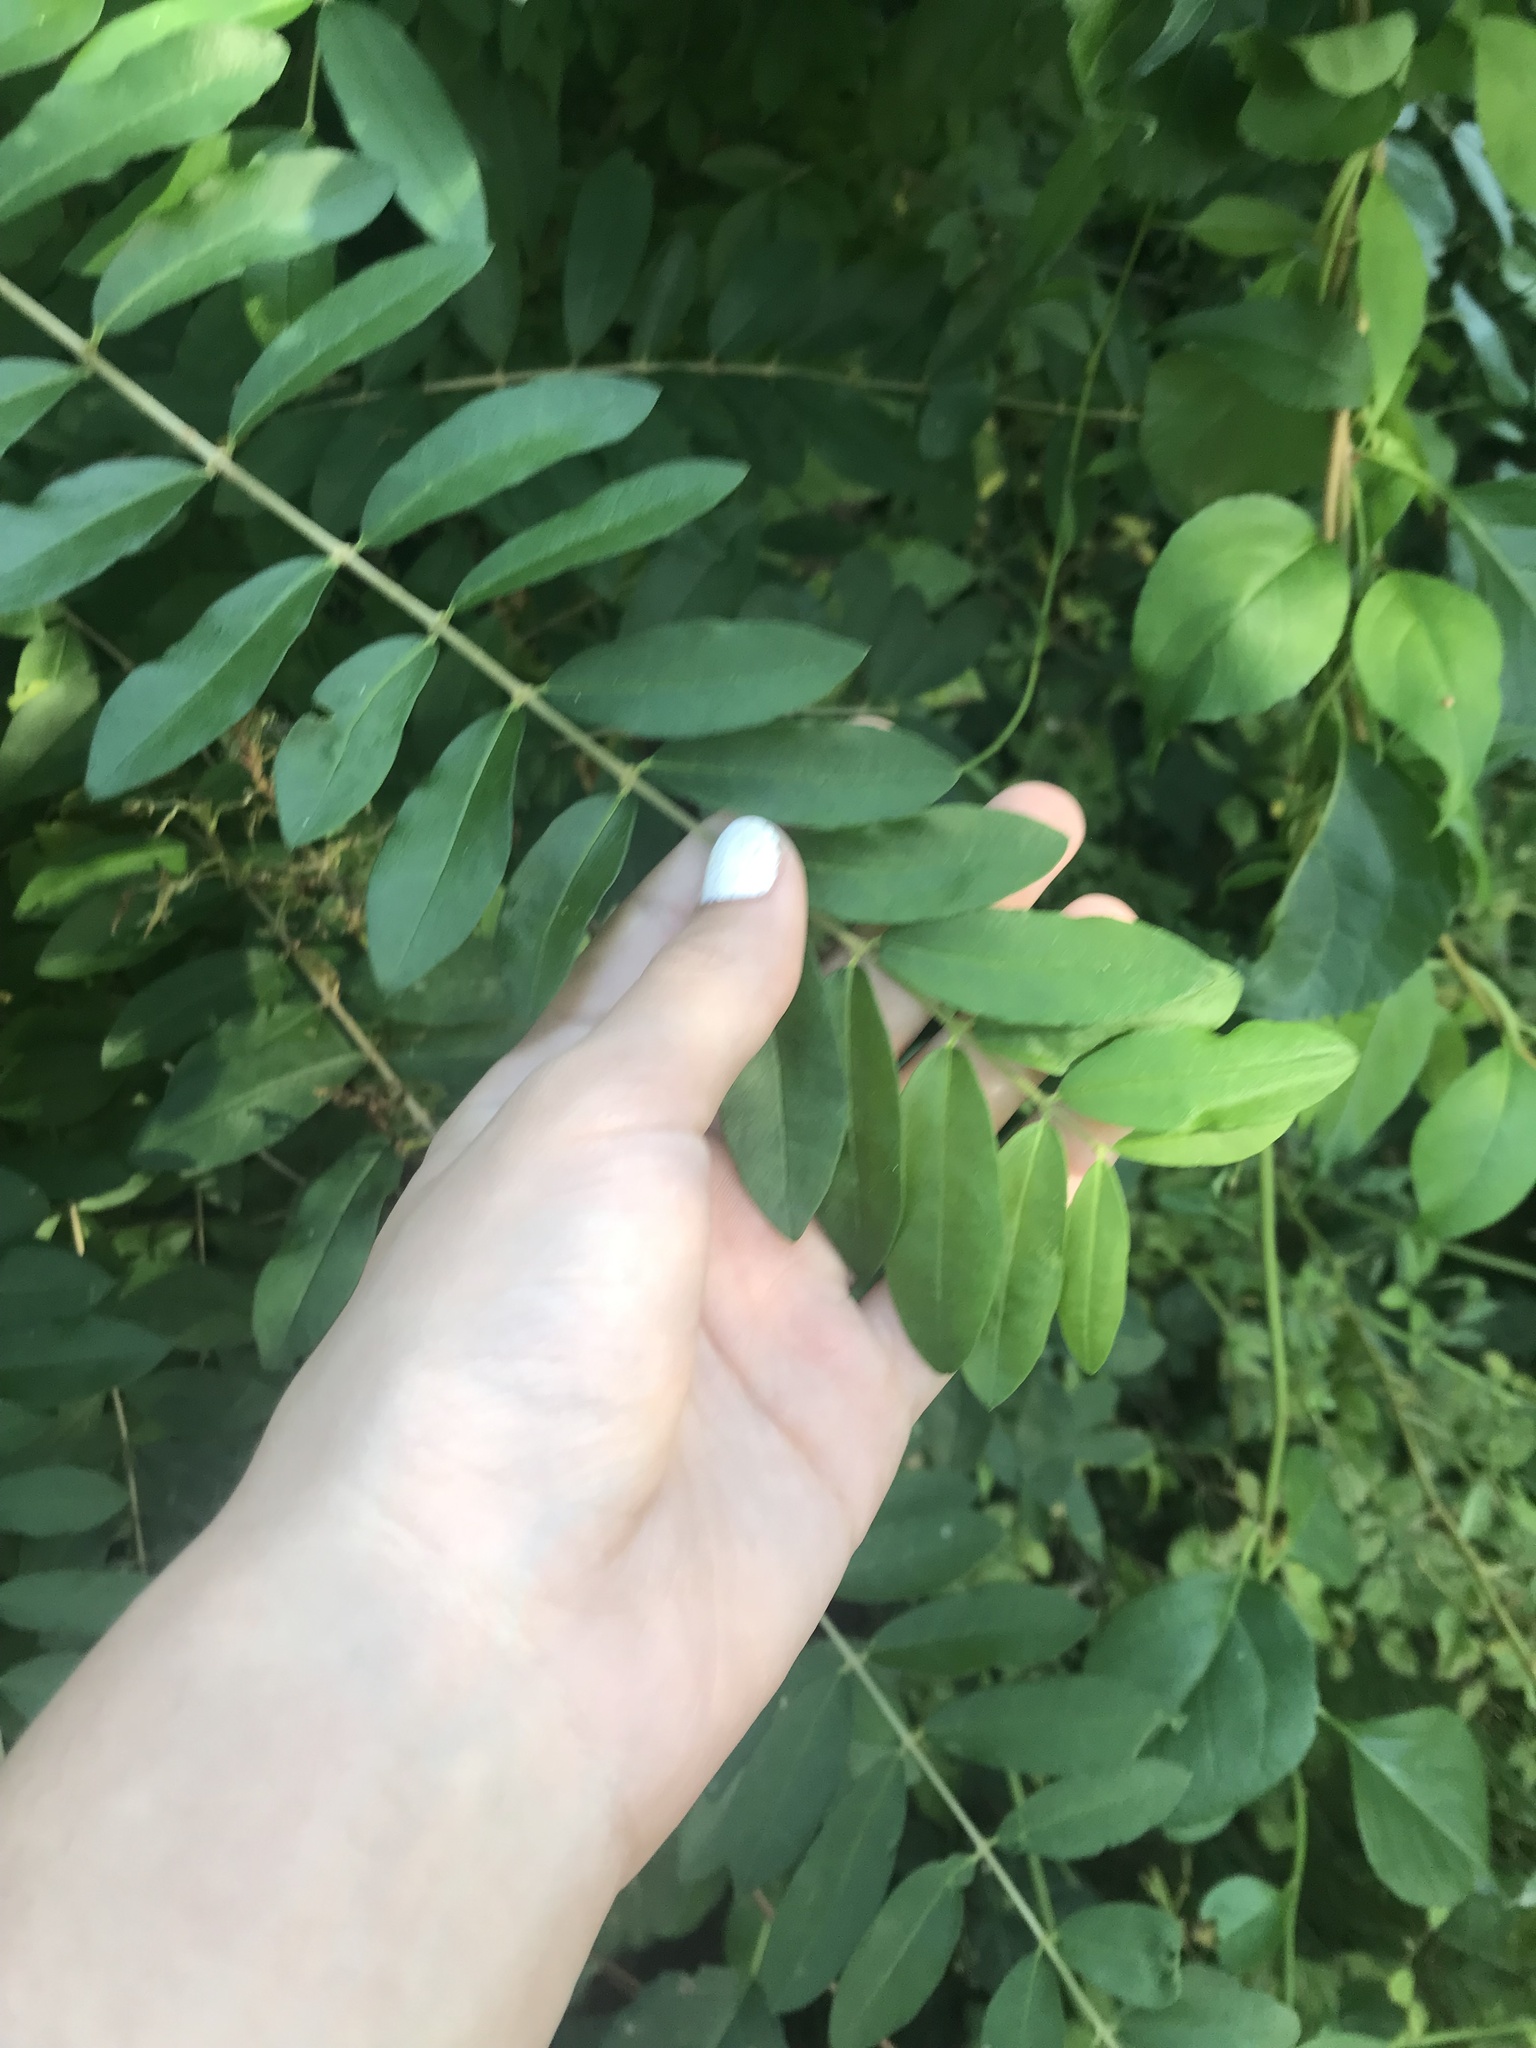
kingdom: Plantae
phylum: Tracheophyta
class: Magnoliopsida
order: Lamiales
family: Oleaceae
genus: Ligustrum
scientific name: Ligustrum obtusifolium
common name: Border privet
